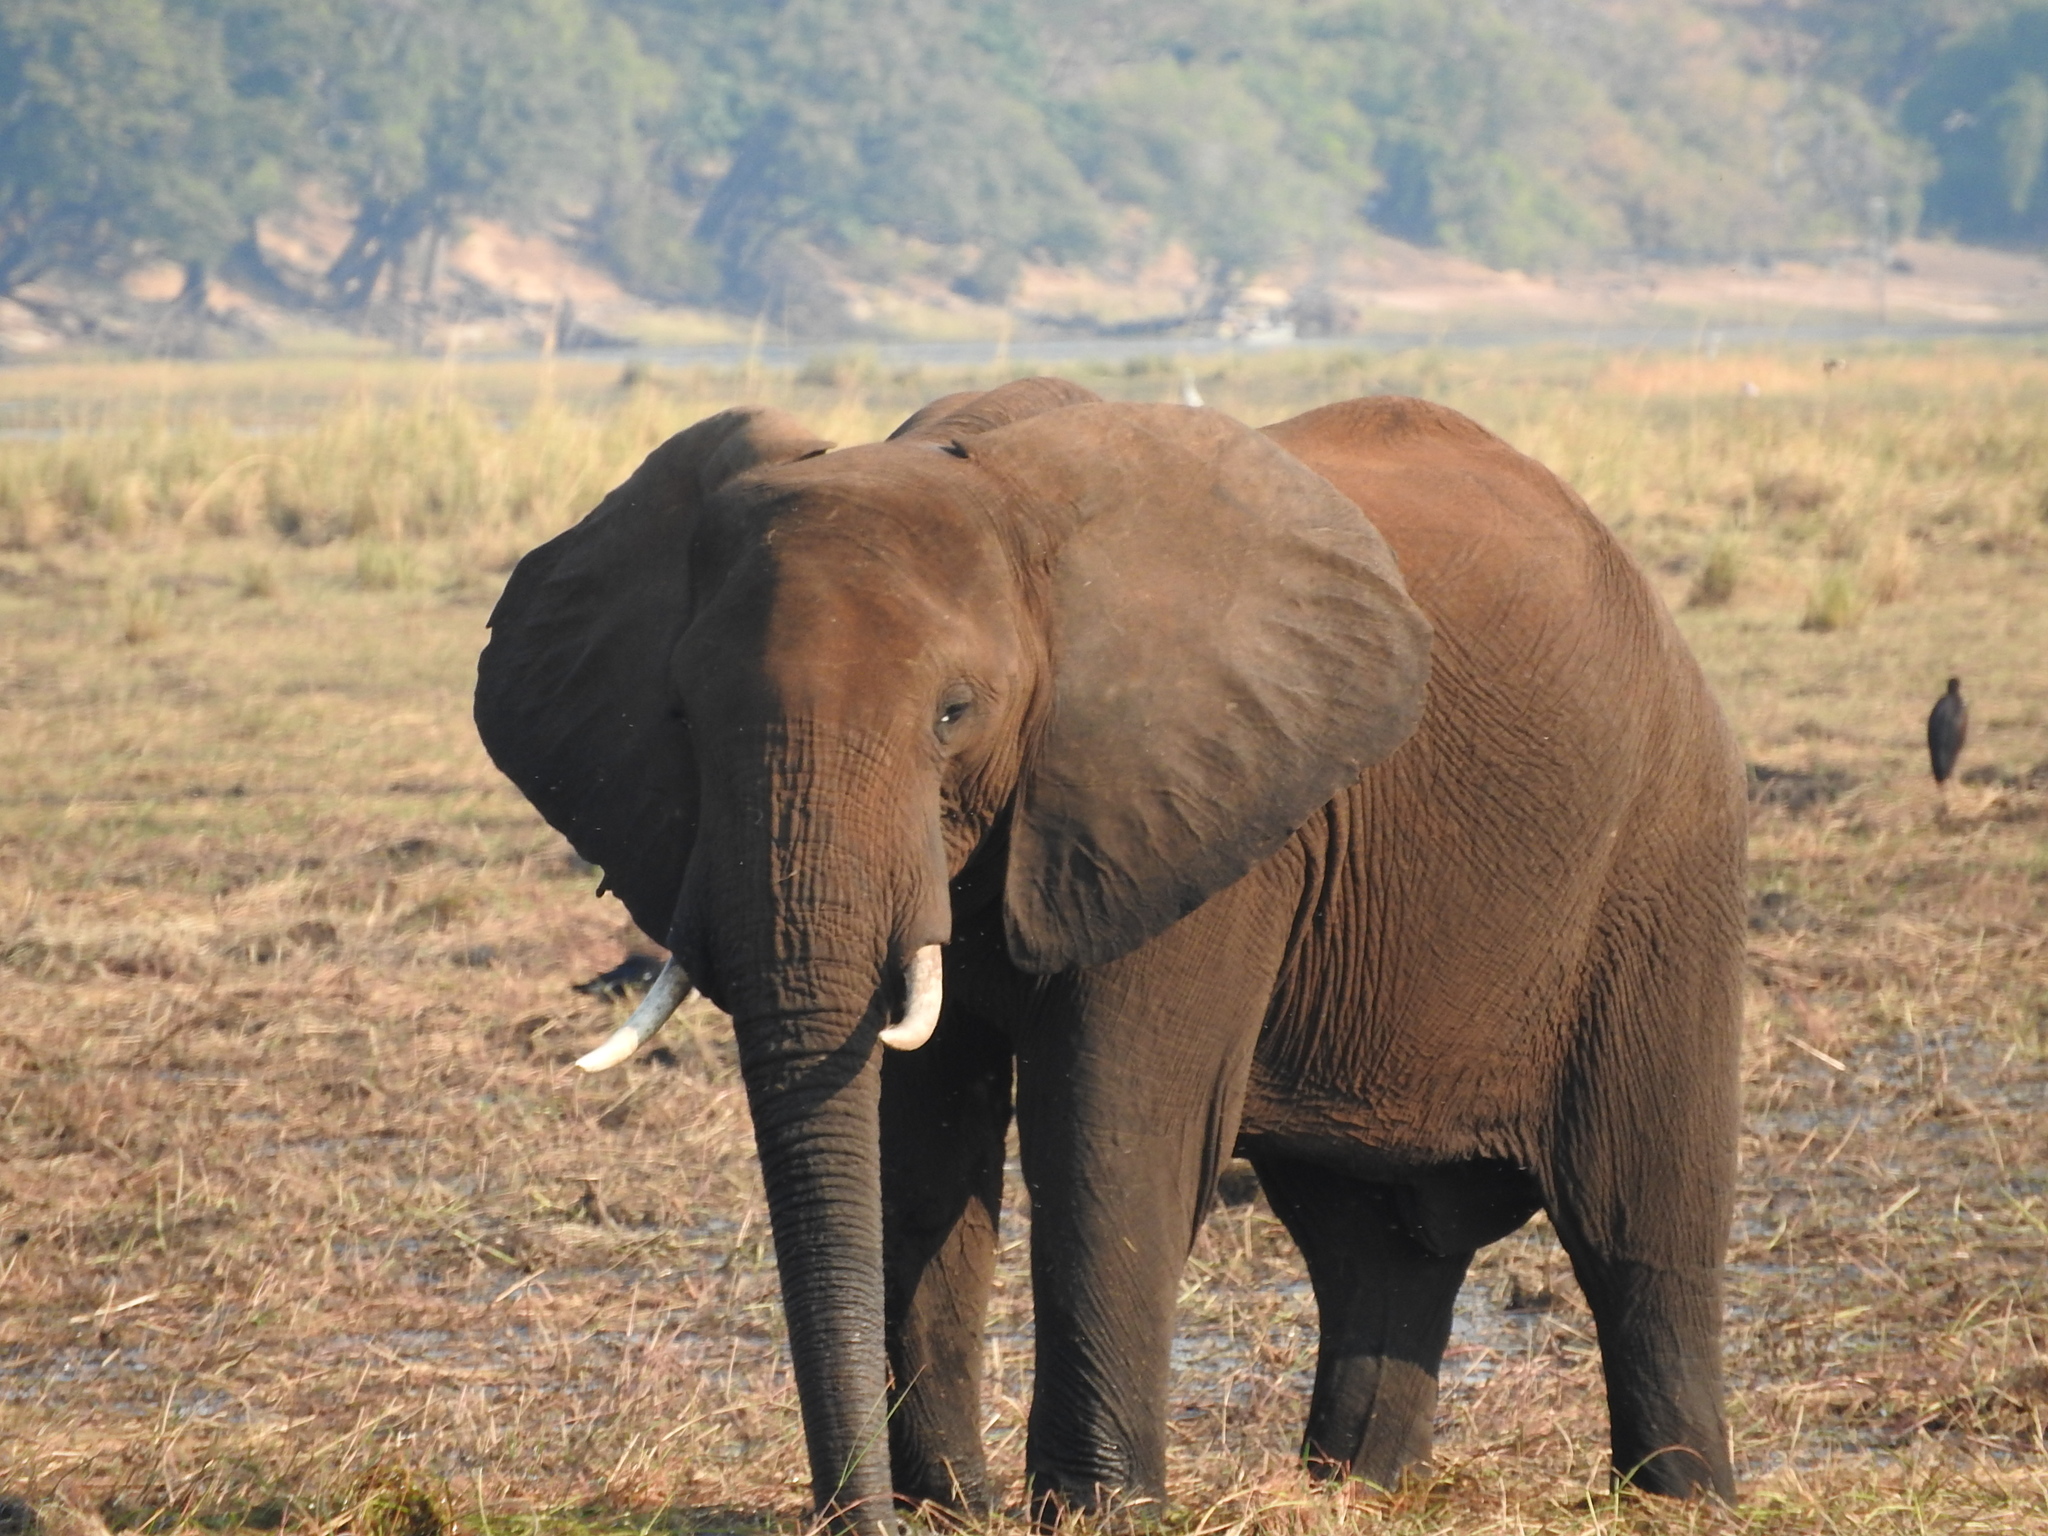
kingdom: Animalia
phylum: Chordata
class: Mammalia
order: Proboscidea
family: Elephantidae
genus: Loxodonta
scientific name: Loxodonta africana
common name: African elephant
